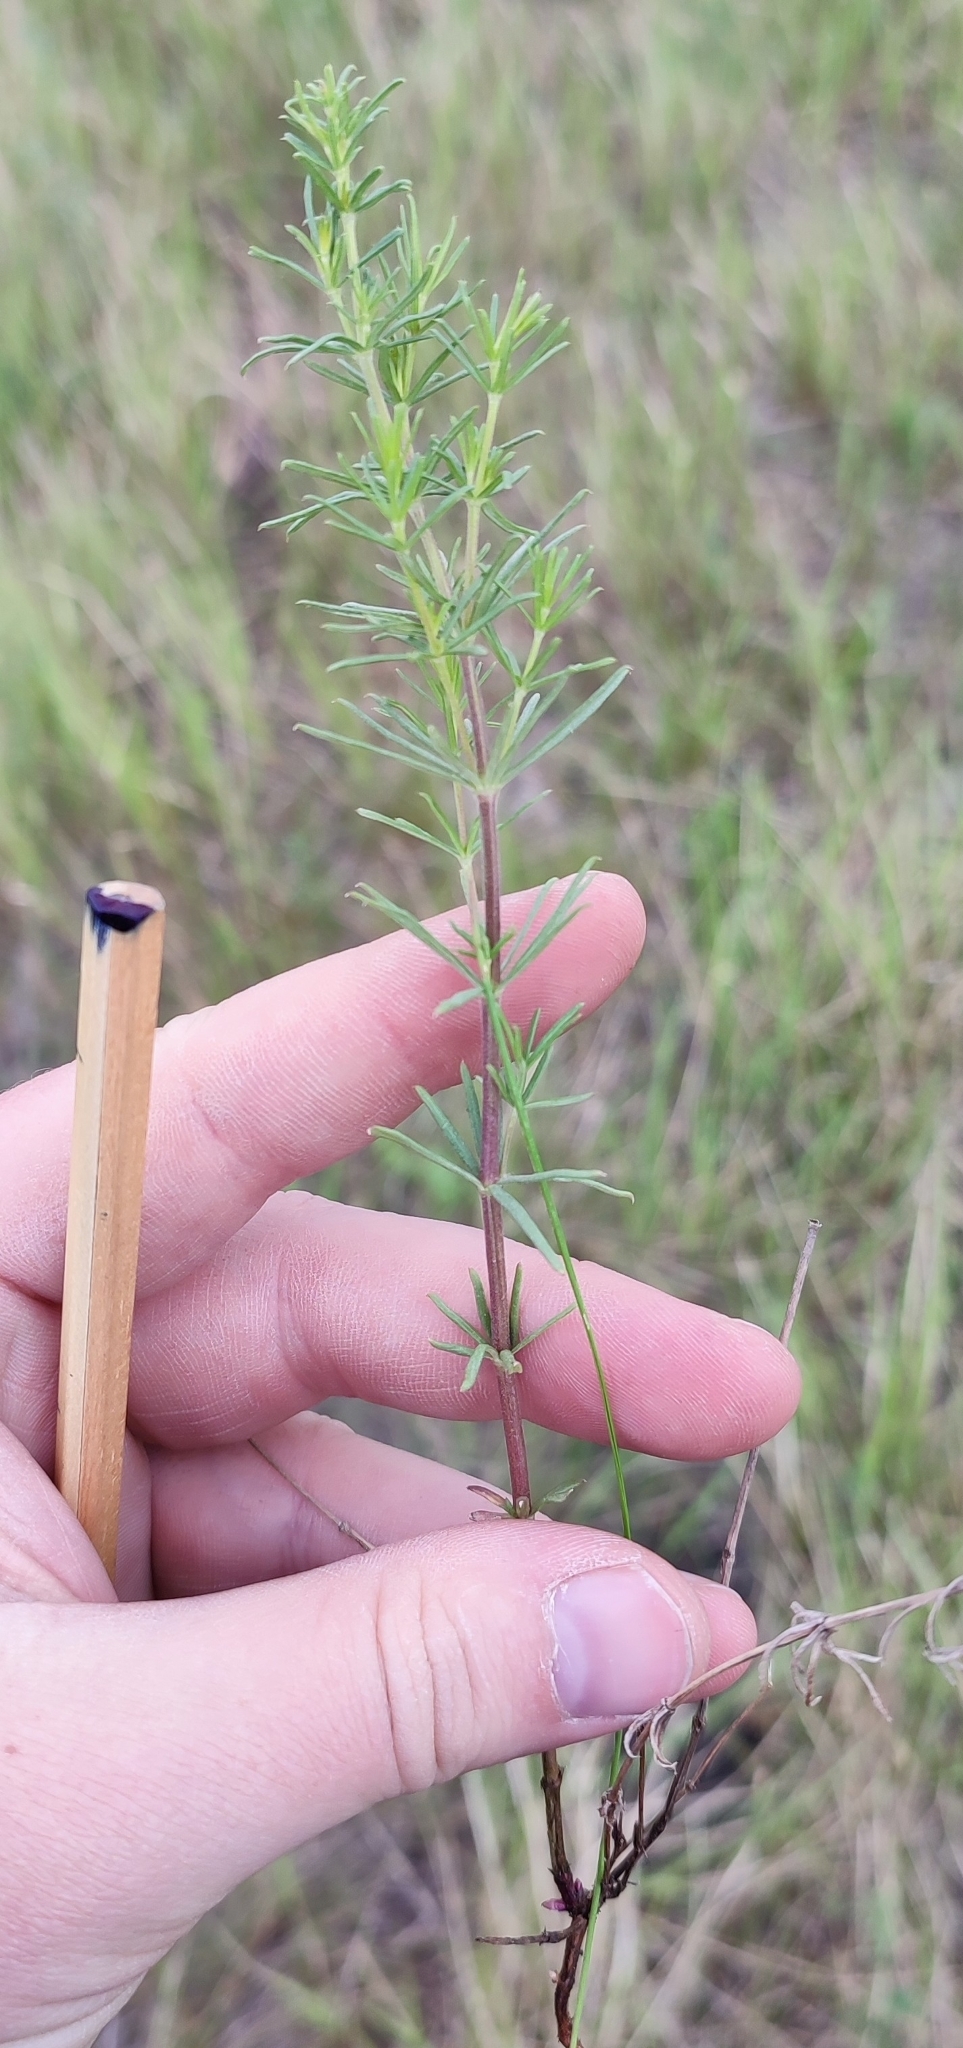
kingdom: Plantae
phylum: Tracheophyta
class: Magnoliopsida
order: Gentianales
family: Rubiaceae
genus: Galium
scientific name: Galium verum
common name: Lady's bedstraw
